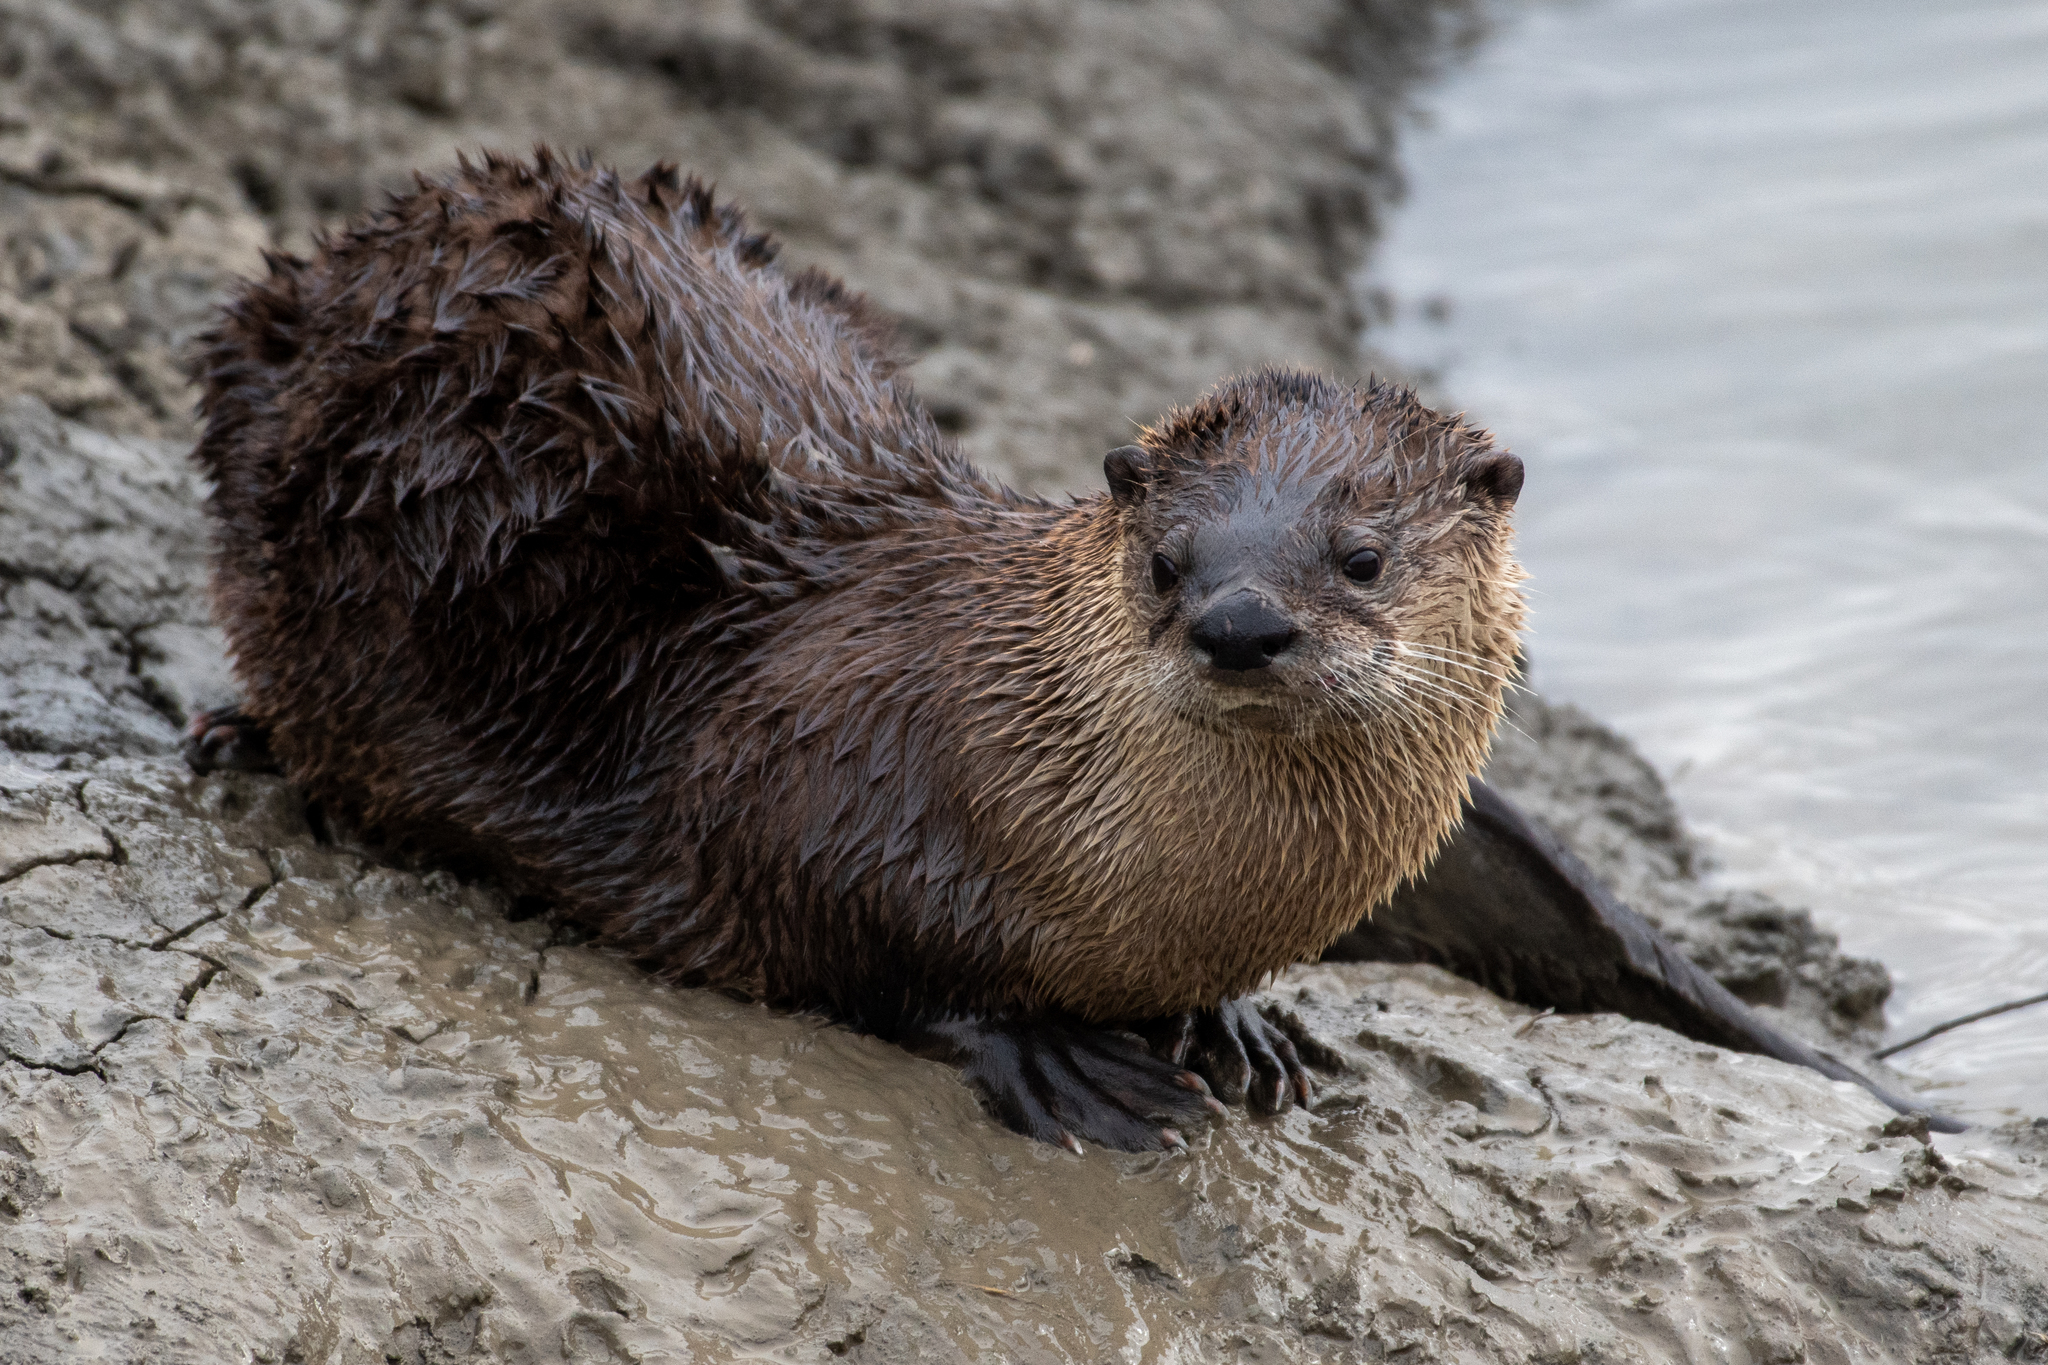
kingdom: Animalia
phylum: Chordata
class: Mammalia
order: Carnivora
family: Mustelidae
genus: Lontra
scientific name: Lontra canadensis
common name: North american river otter
